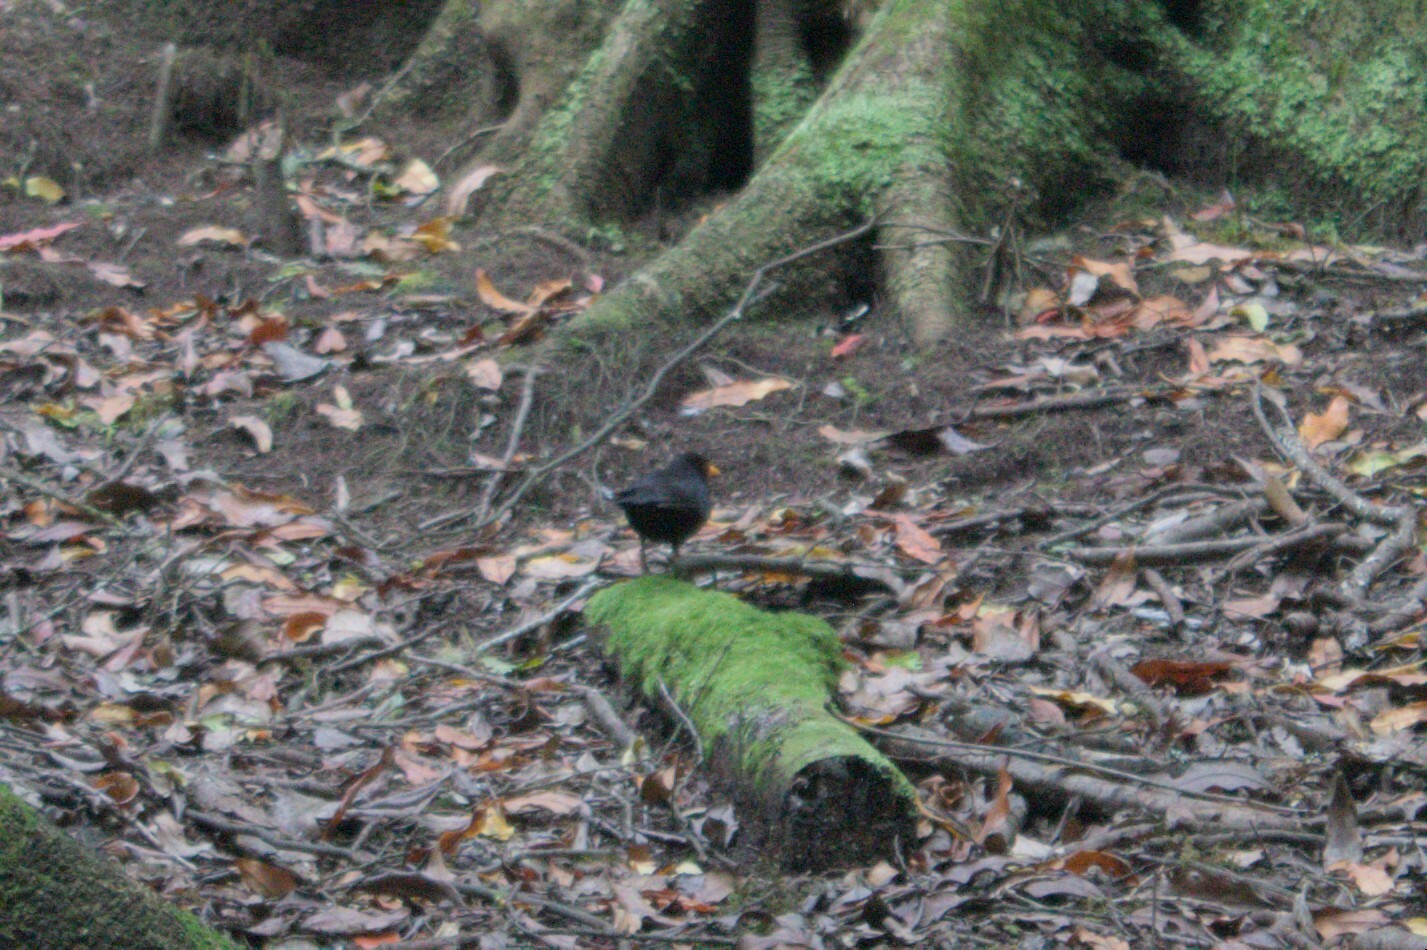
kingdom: Animalia
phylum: Chordata
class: Aves
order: Passeriformes
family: Turdidae
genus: Turdus
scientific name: Turdus merula
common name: Common blackbird
